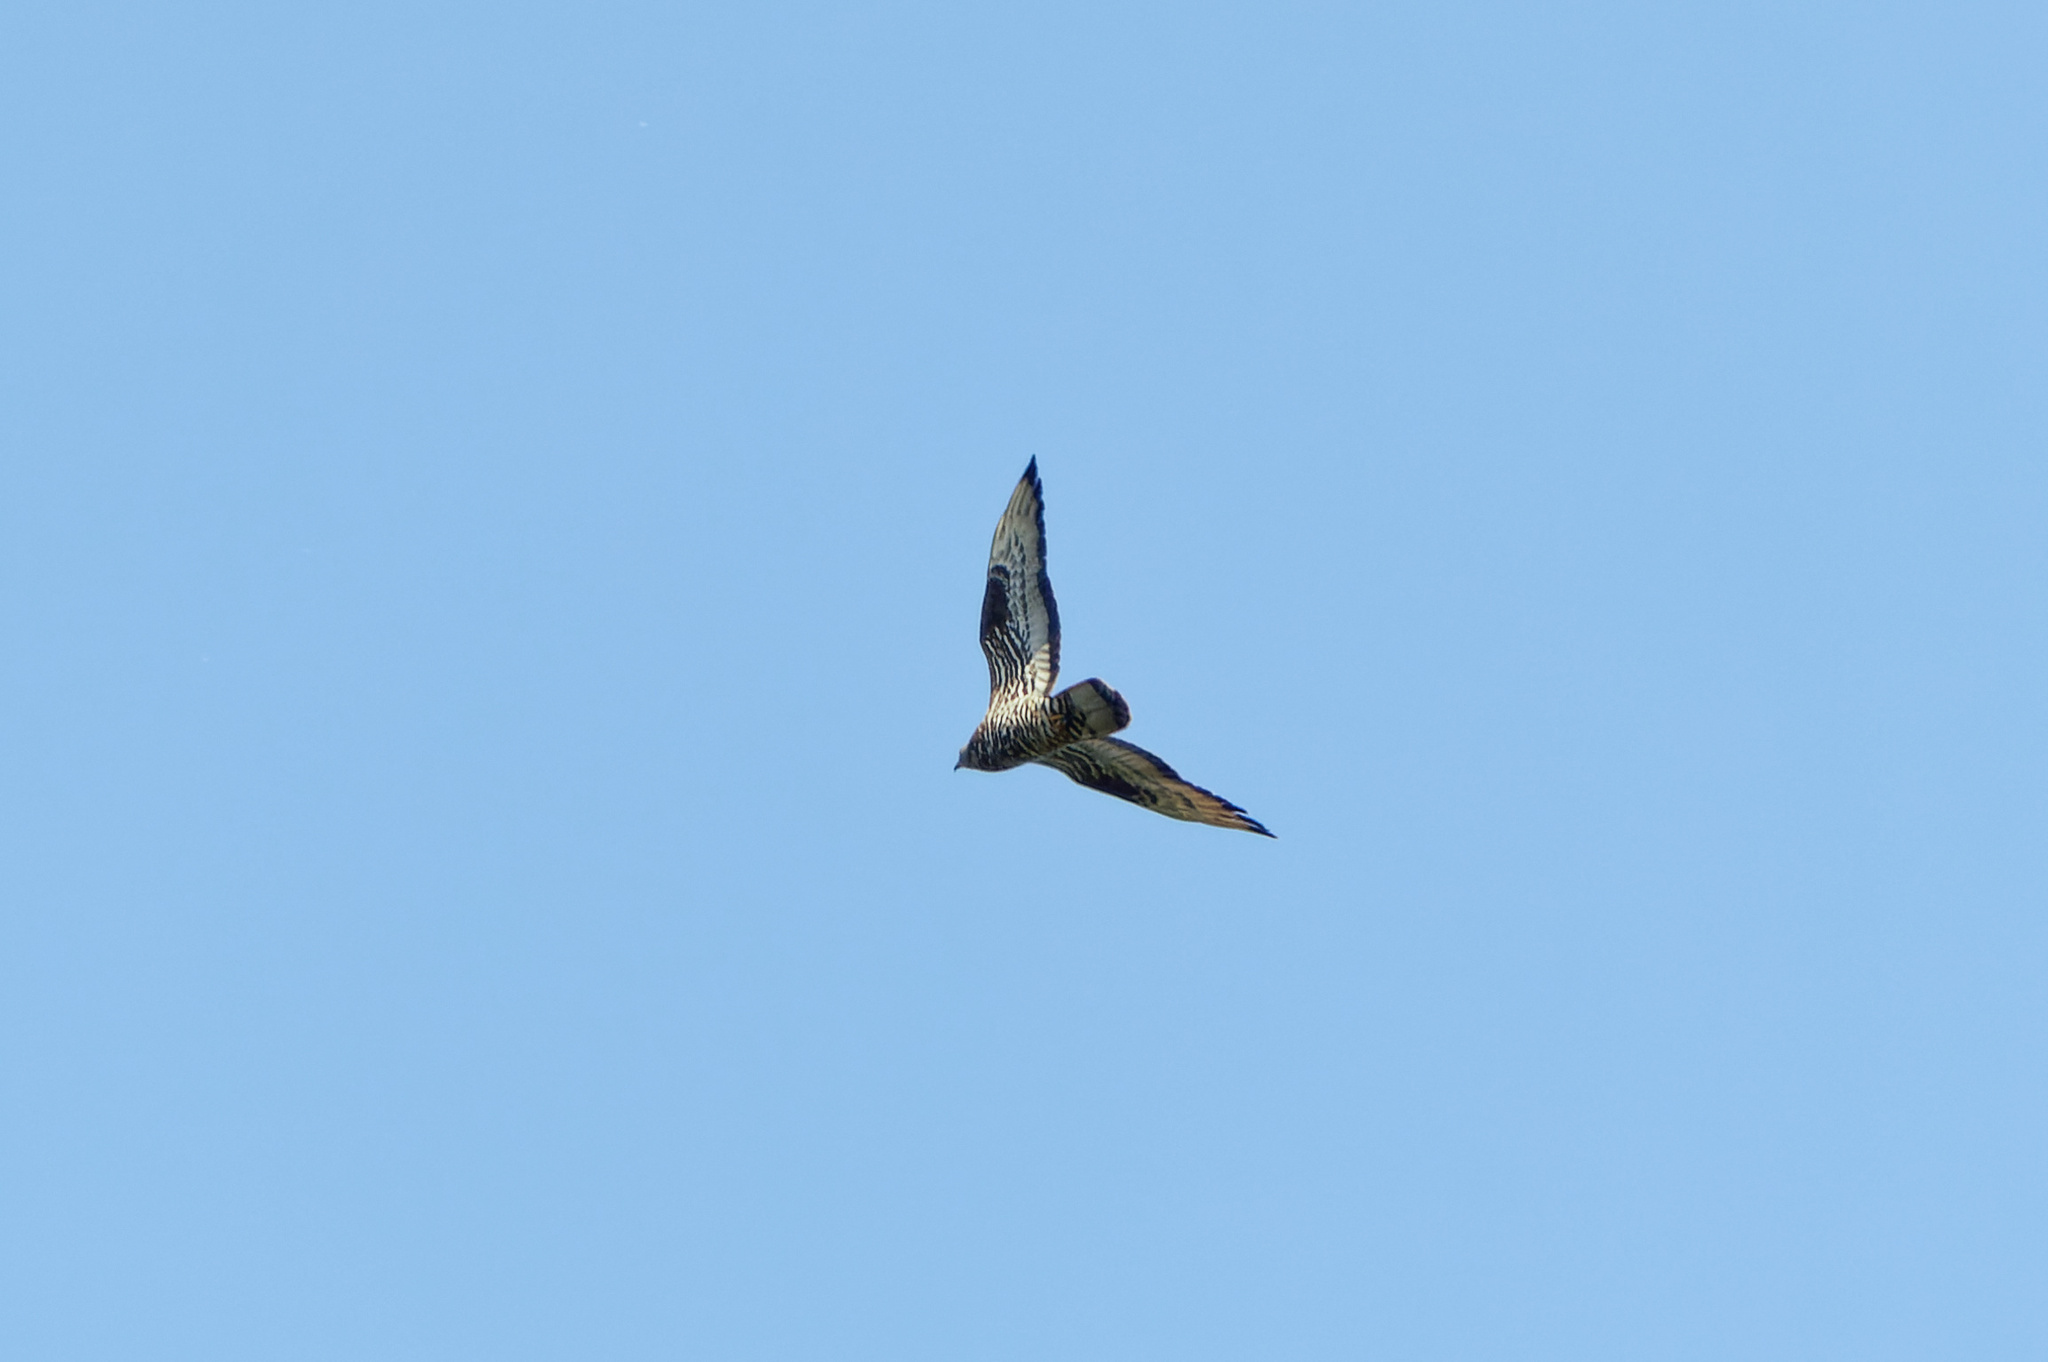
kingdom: Animalia
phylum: Chordata
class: Aves
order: Accipitriformes
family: Accipitridae
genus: Pernis
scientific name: Pernis apivorus
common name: European honey buzzard
